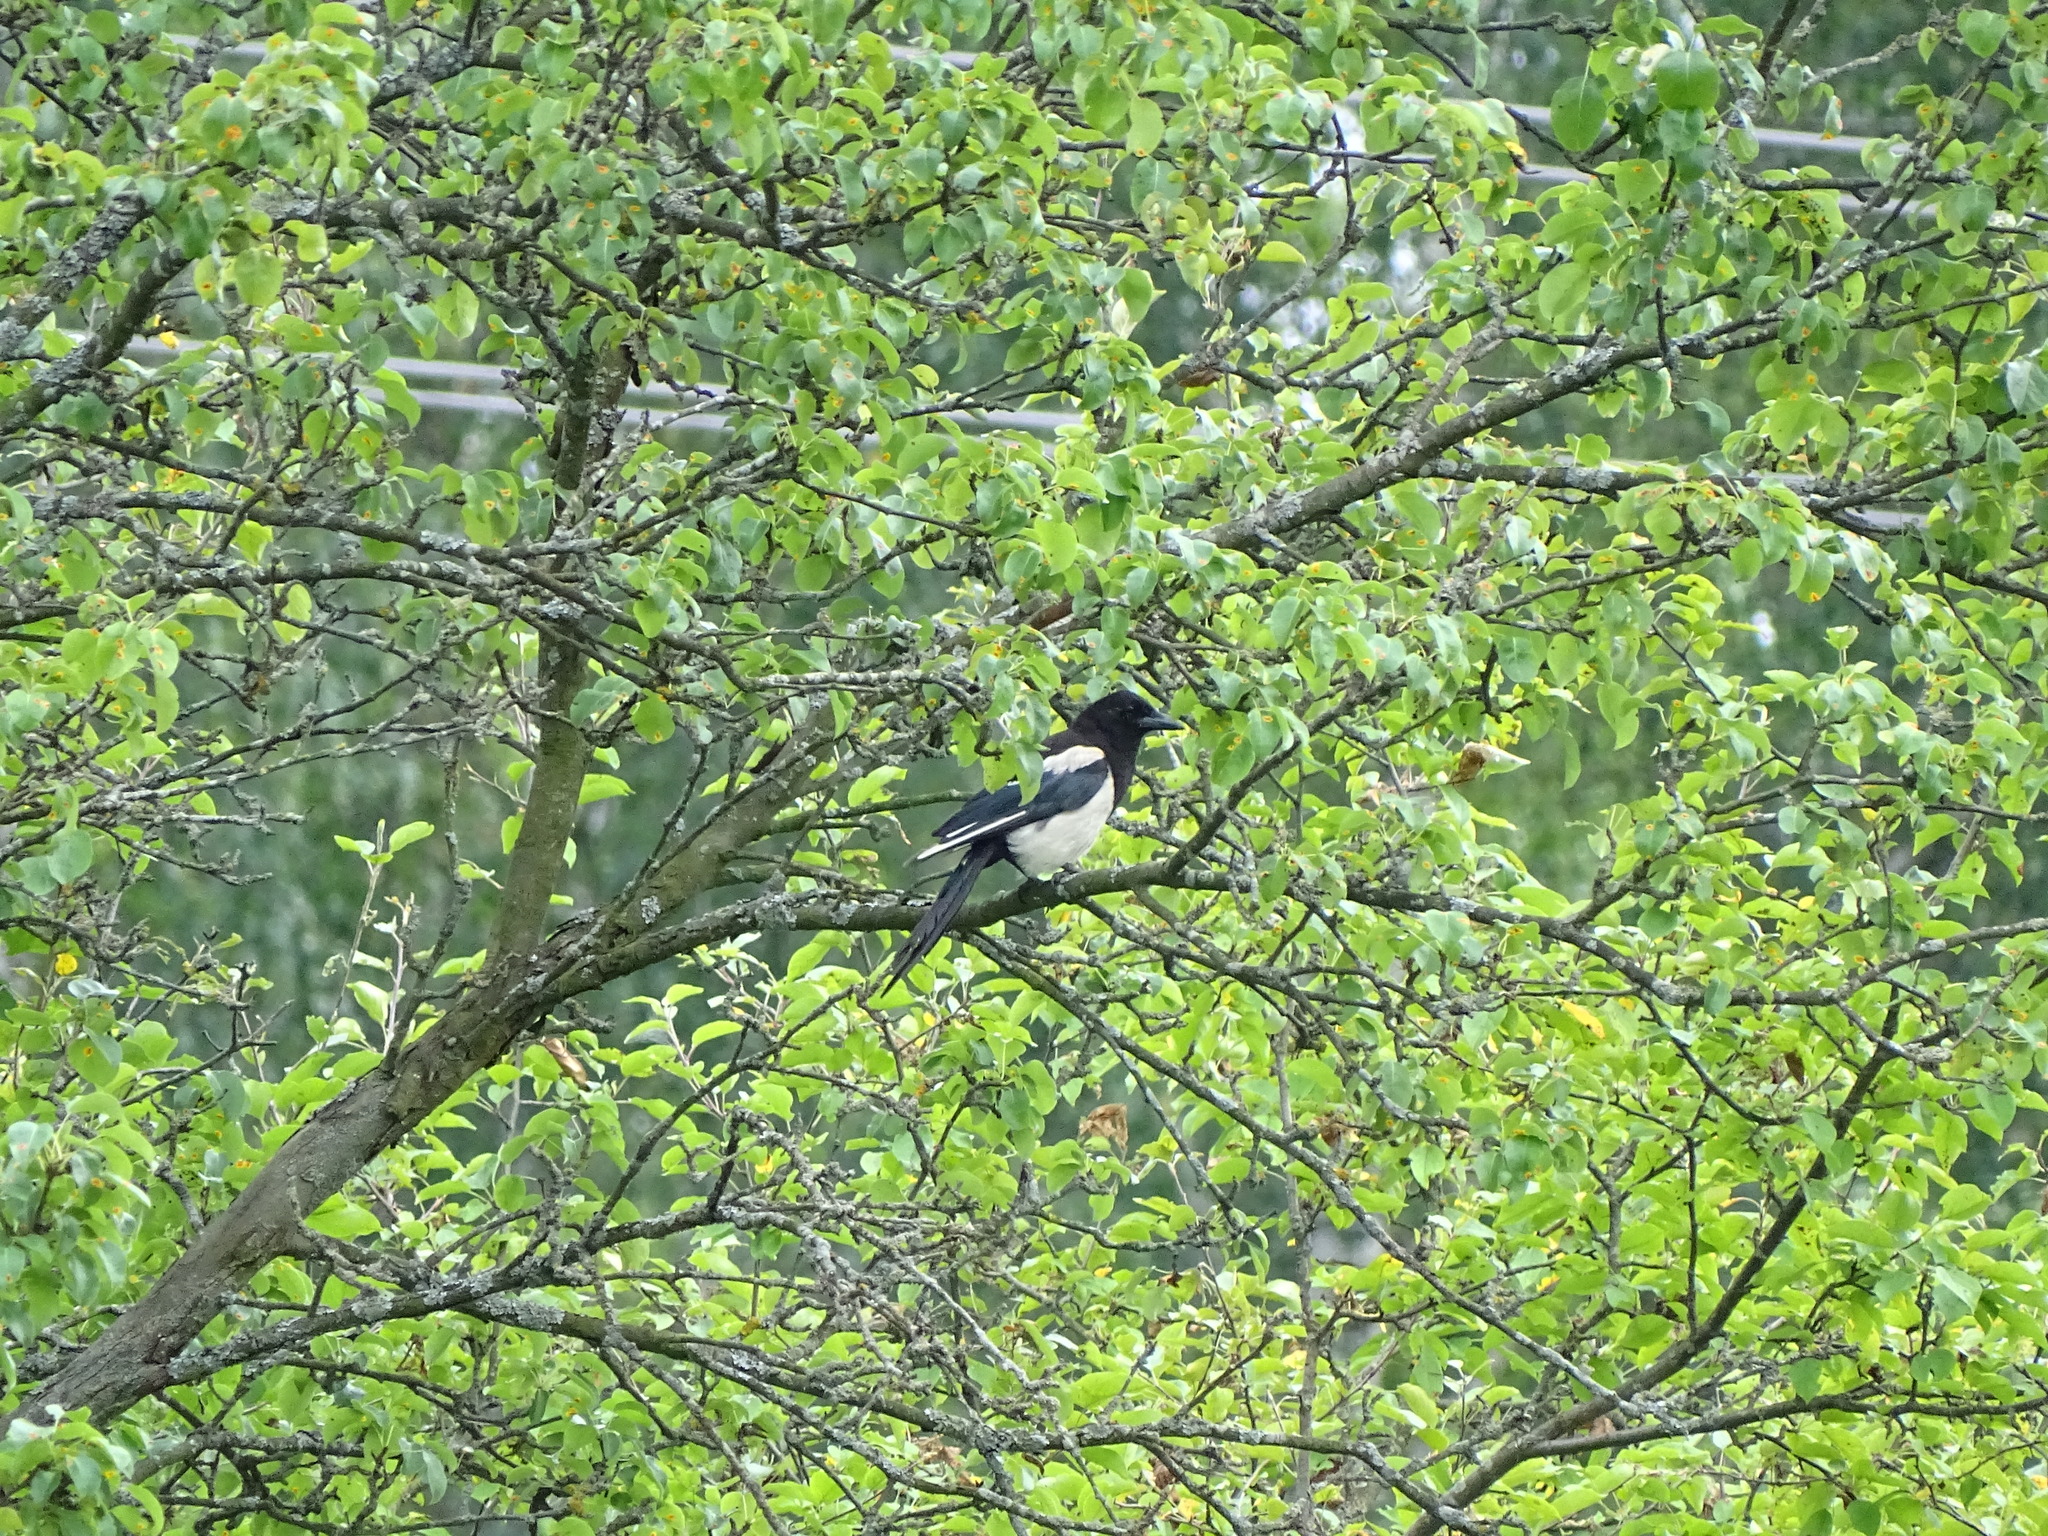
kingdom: Animalia
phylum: Chordata
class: Aves
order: Passeriformes
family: Corvidae
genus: Pica
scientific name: Pica pica
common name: Eurasian magpie
